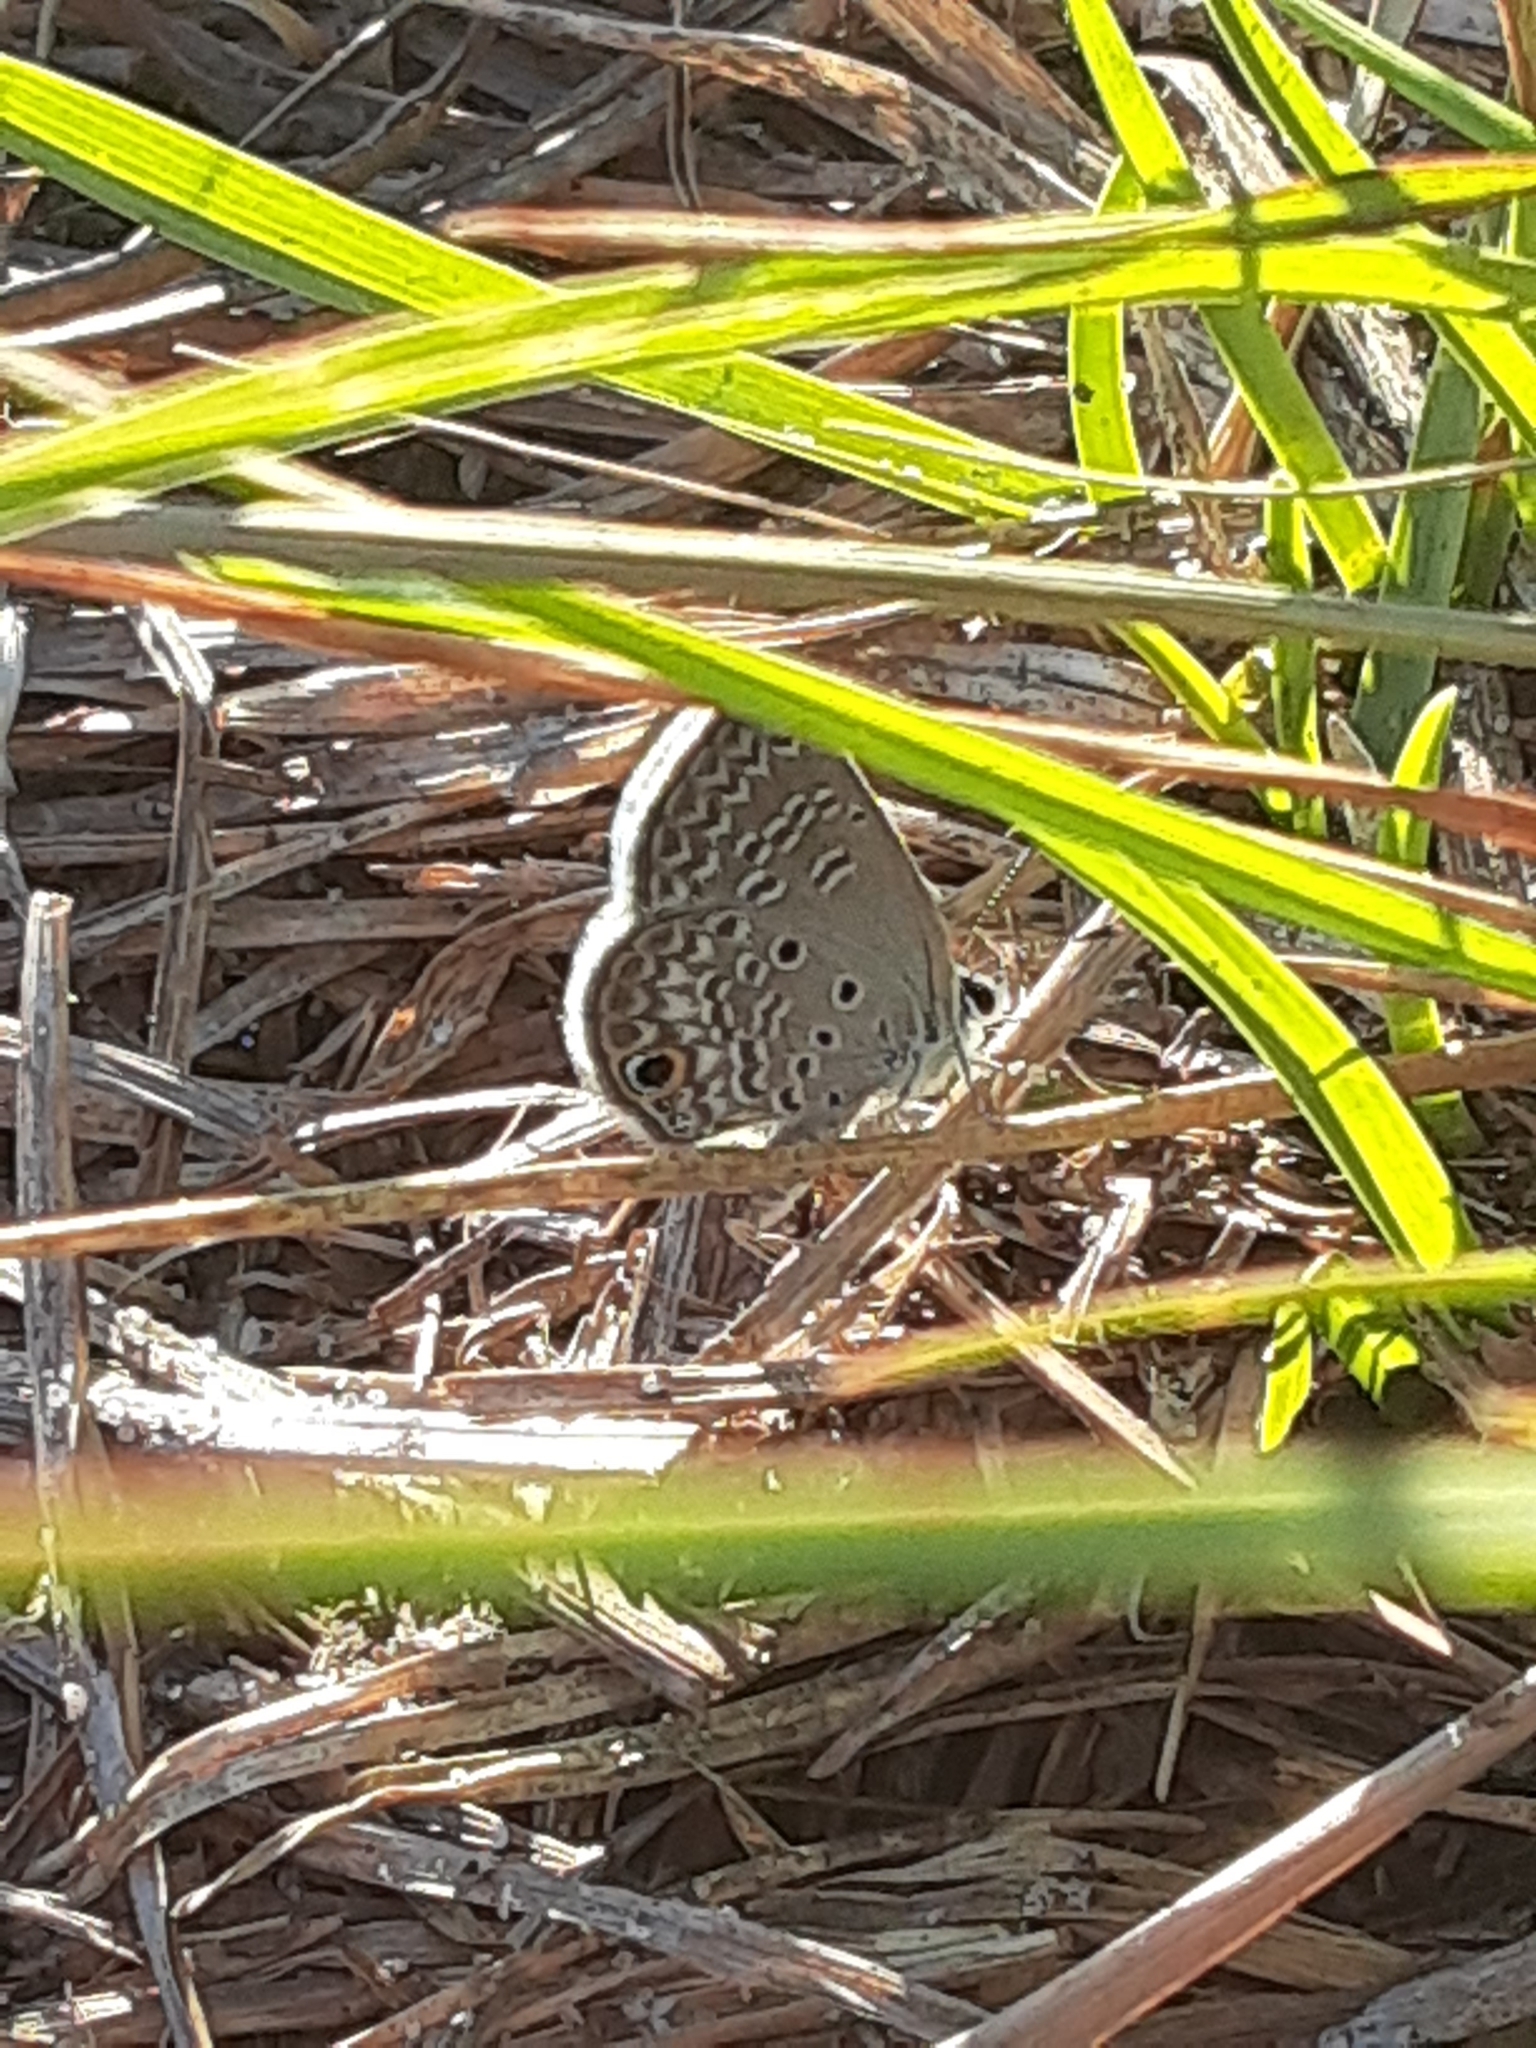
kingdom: Animalia
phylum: Arthropoda
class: Insecta
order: Lepidoptera
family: Lycaenidae
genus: Hemiargus
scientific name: Hemiargus ceraunus
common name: Ceraunus blue
